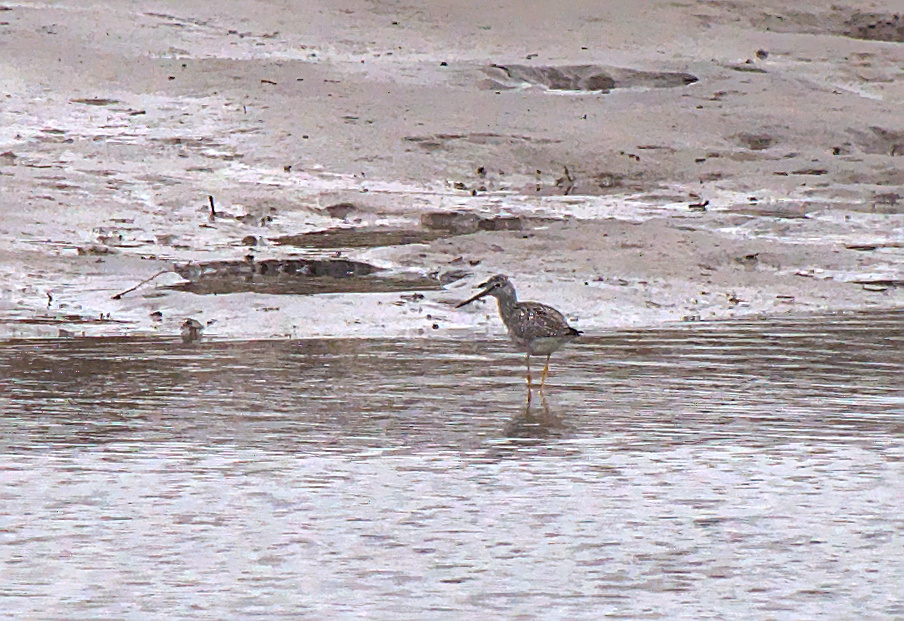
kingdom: Animalia
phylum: Chordata
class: Aves
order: Charadriiformes
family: Scolopacidae
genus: Tringa
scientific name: Tringa melanoleuca
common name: Greater yellowlegs
